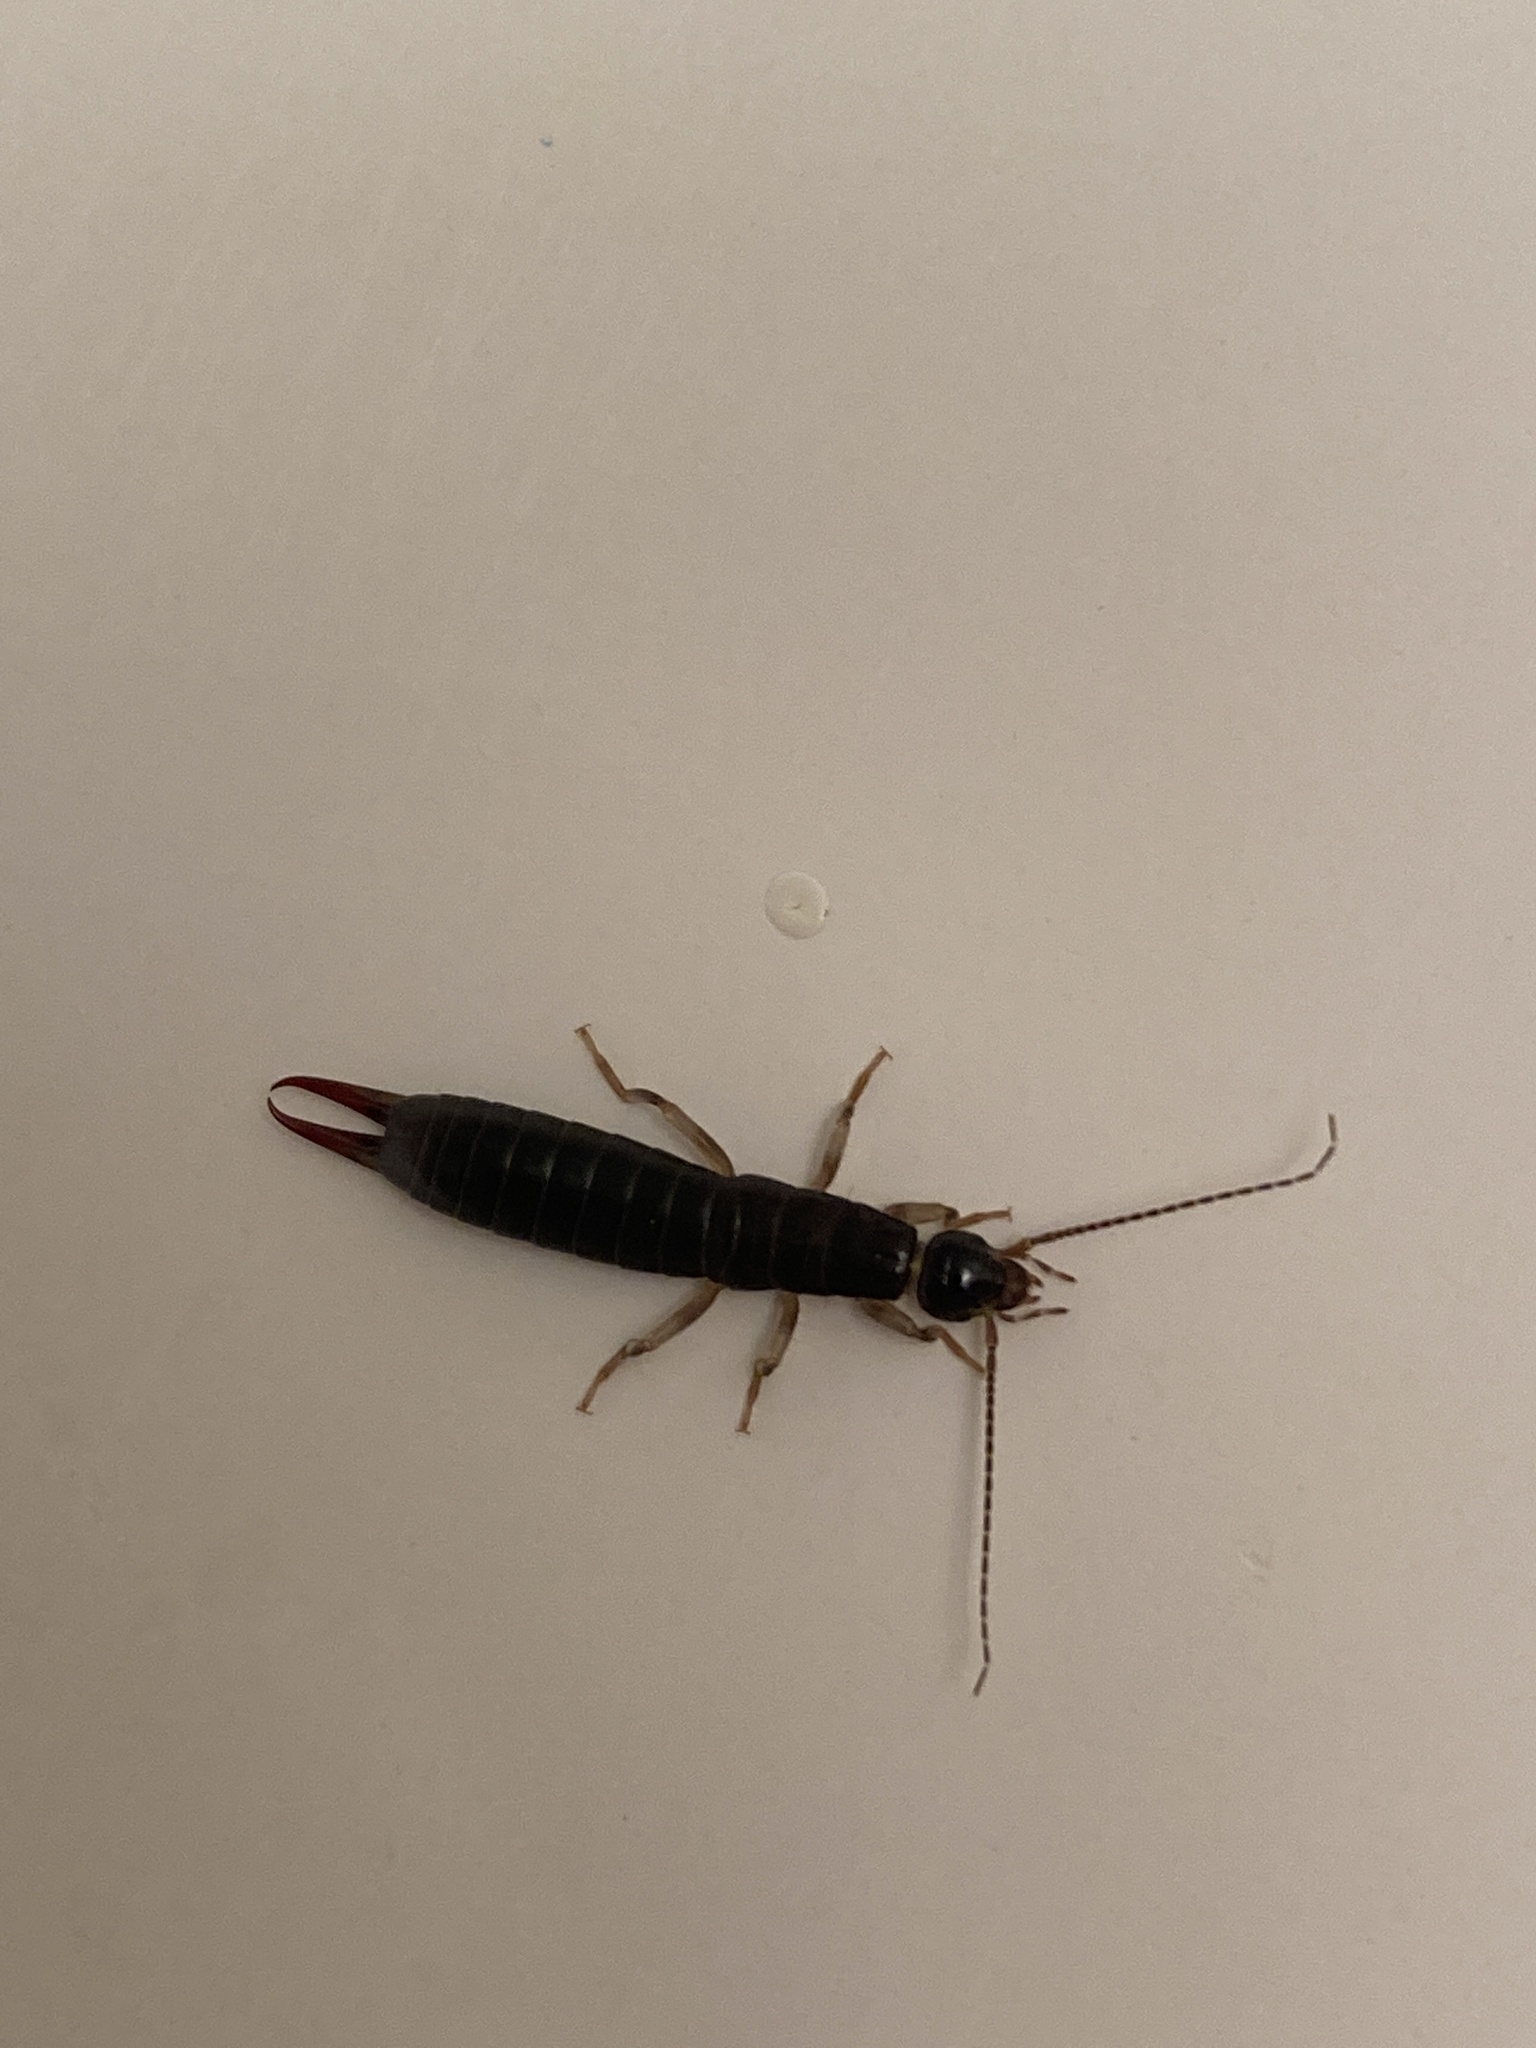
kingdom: Animalia
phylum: Arthropoda
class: Insecta
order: Dermaptera
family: Anisolabididae
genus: Anisolabis
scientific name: Anisolabis maritima
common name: Maritime earwig
